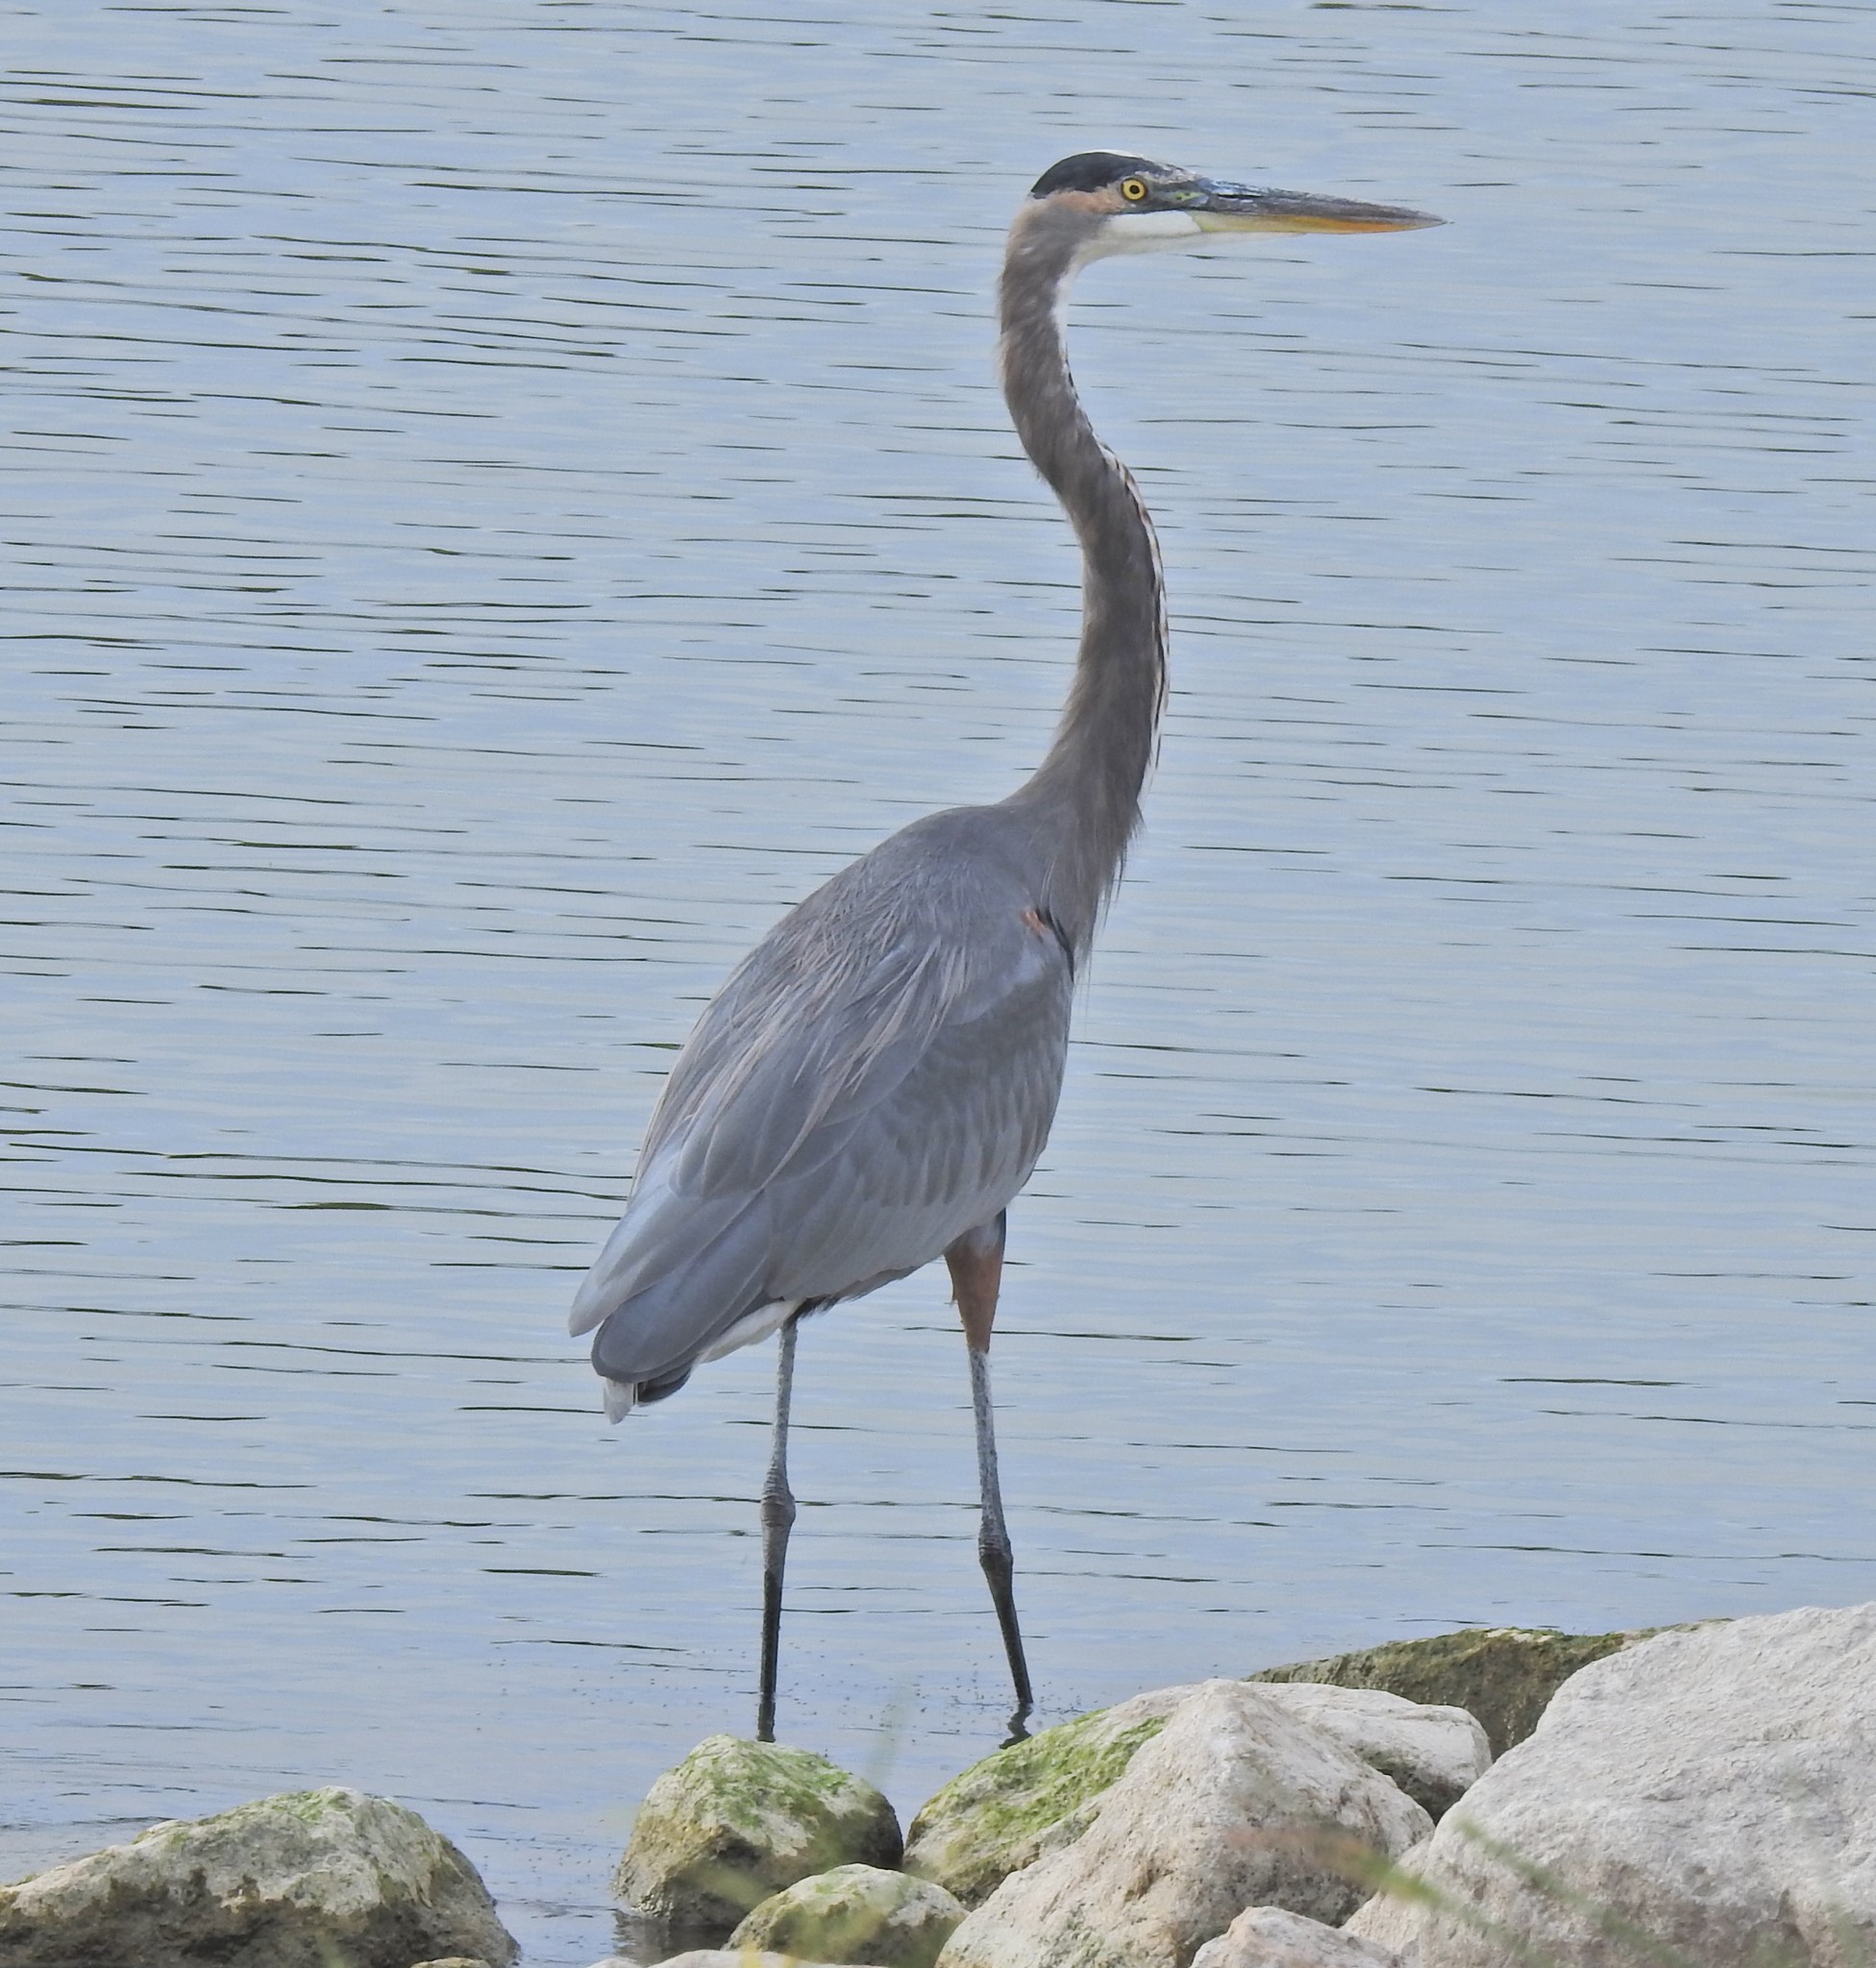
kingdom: Animalia
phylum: Chordata
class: Aves
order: Pelecaniformes
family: Ardeidae
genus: Ardea
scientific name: Ardea herodias
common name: Great blue heron
